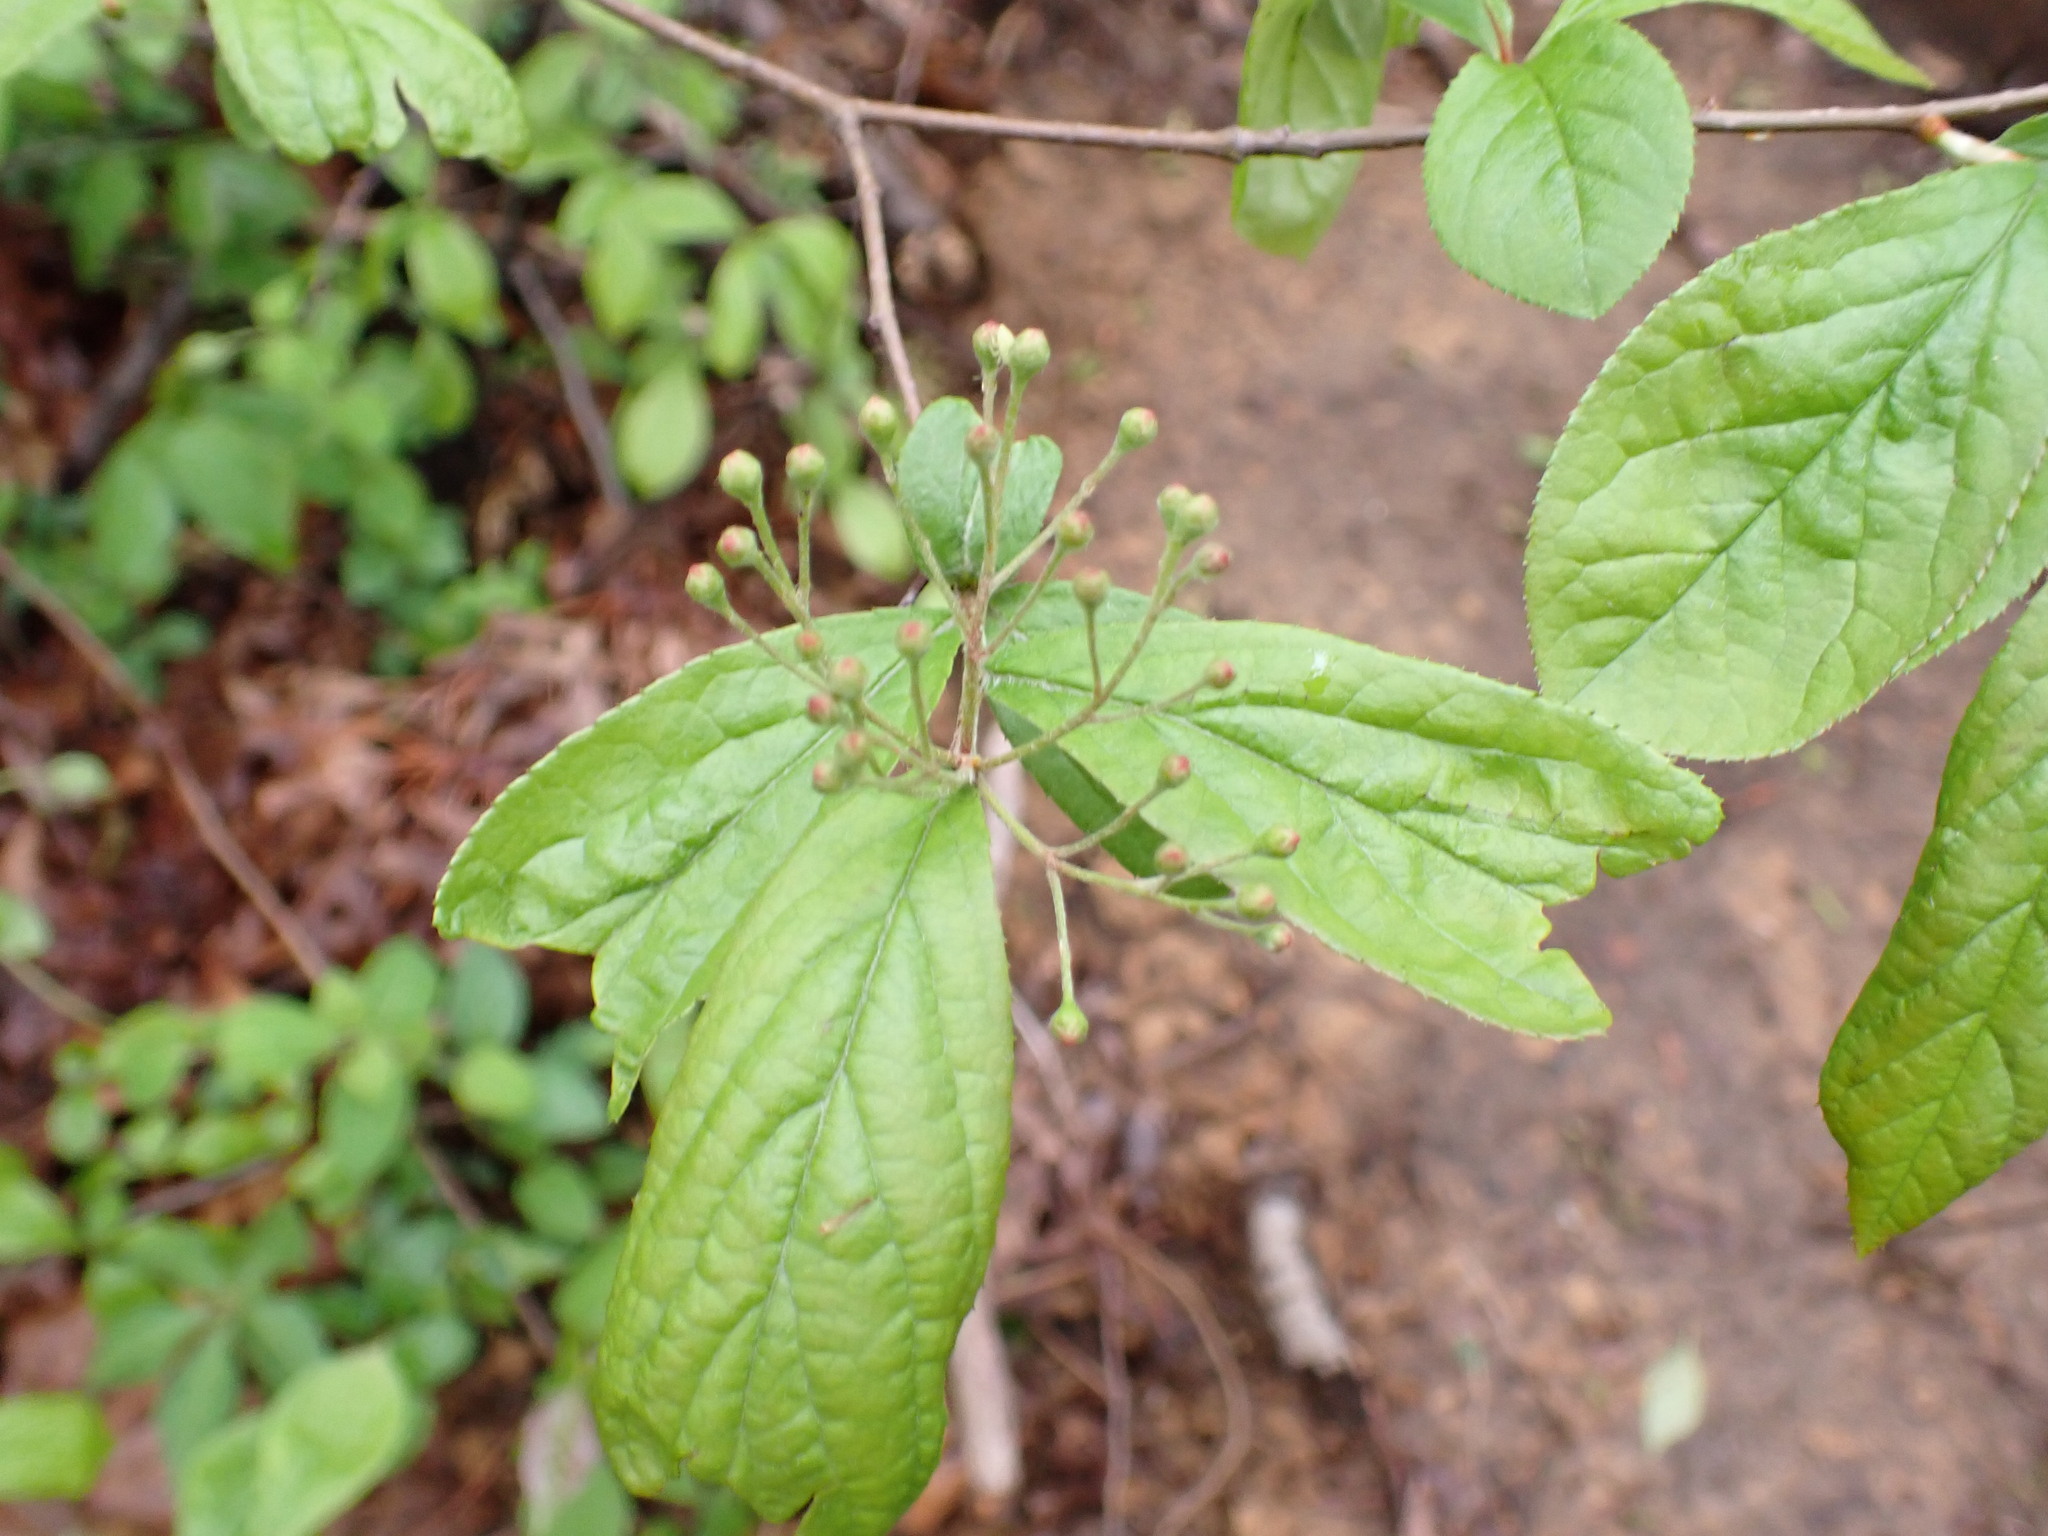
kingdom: Plantae
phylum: Tracheophyta
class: Magnoliopsida
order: Rosales
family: Rosaceae
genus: Pourthiaea
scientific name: Pourthiaea villosa
